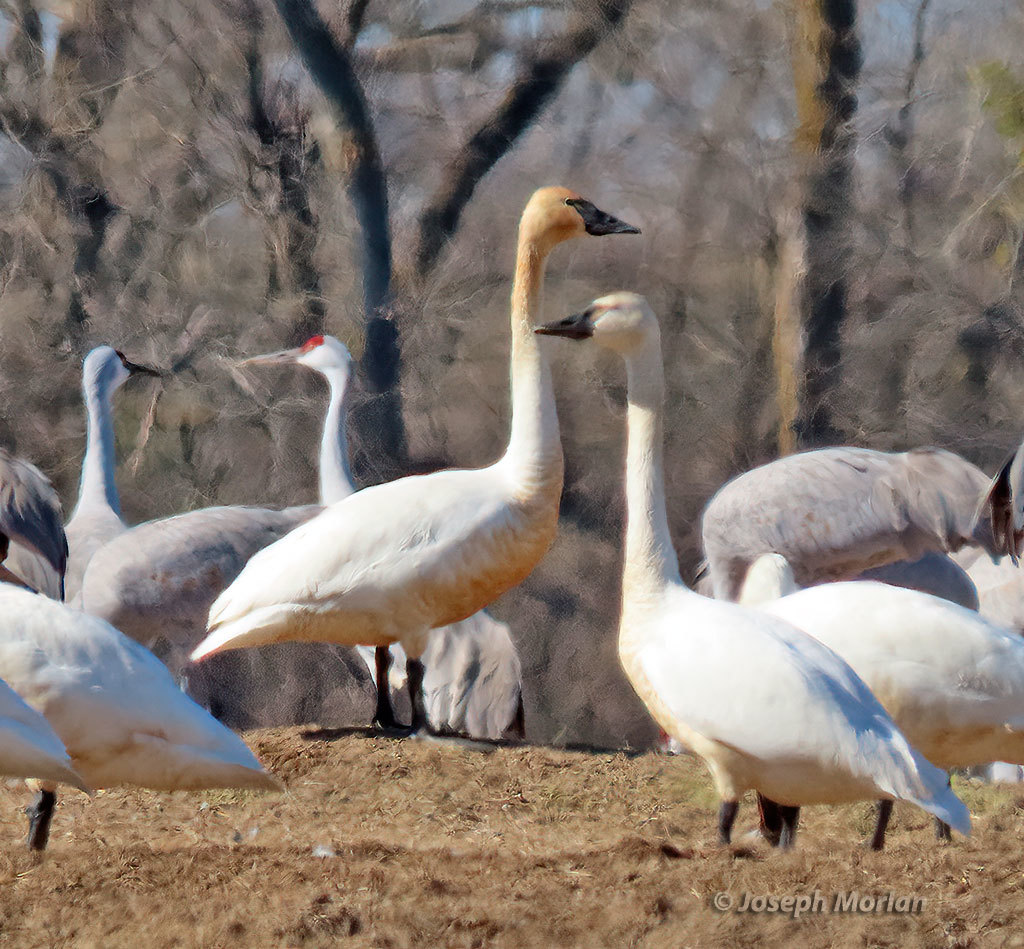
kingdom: Animalia
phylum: Chordata
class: Aves
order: Anseriformes
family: Anatidae
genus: Cygnus
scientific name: Cygnus buccinator
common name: Trumpeter swan
